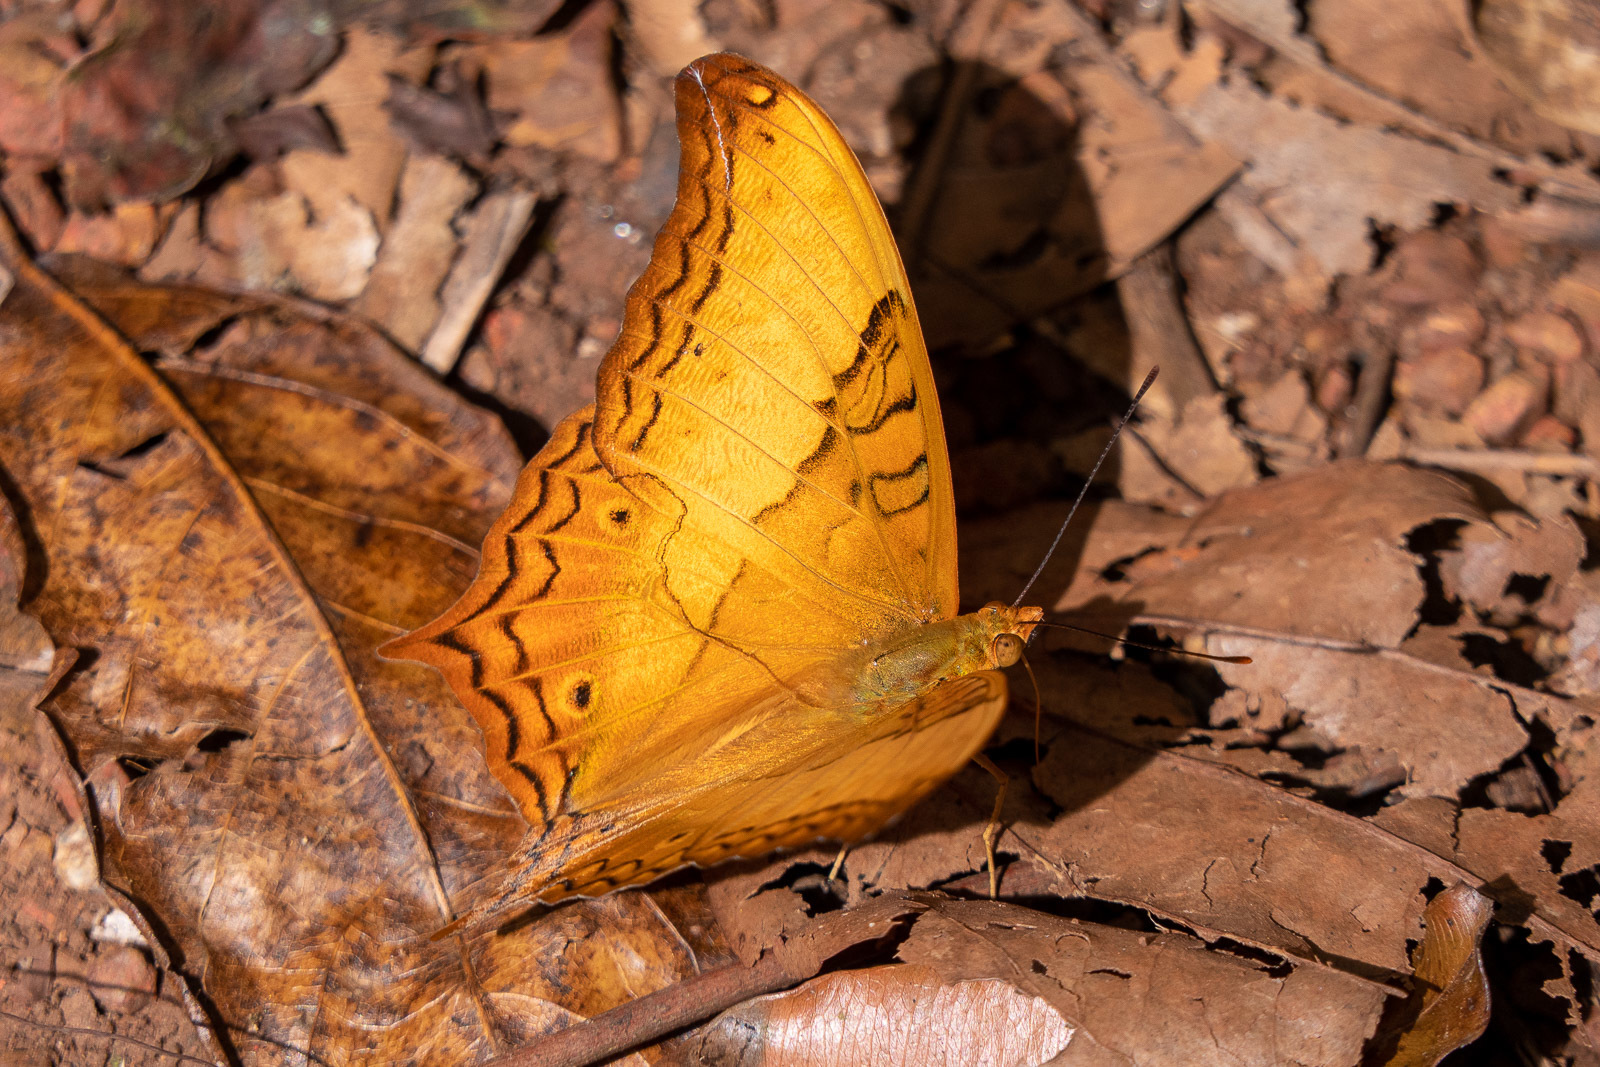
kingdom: Animalia
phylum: Arthropoda
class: Insecta
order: Lepidoptera
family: Nymphalidae
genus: Vindula
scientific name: Vindula erota
